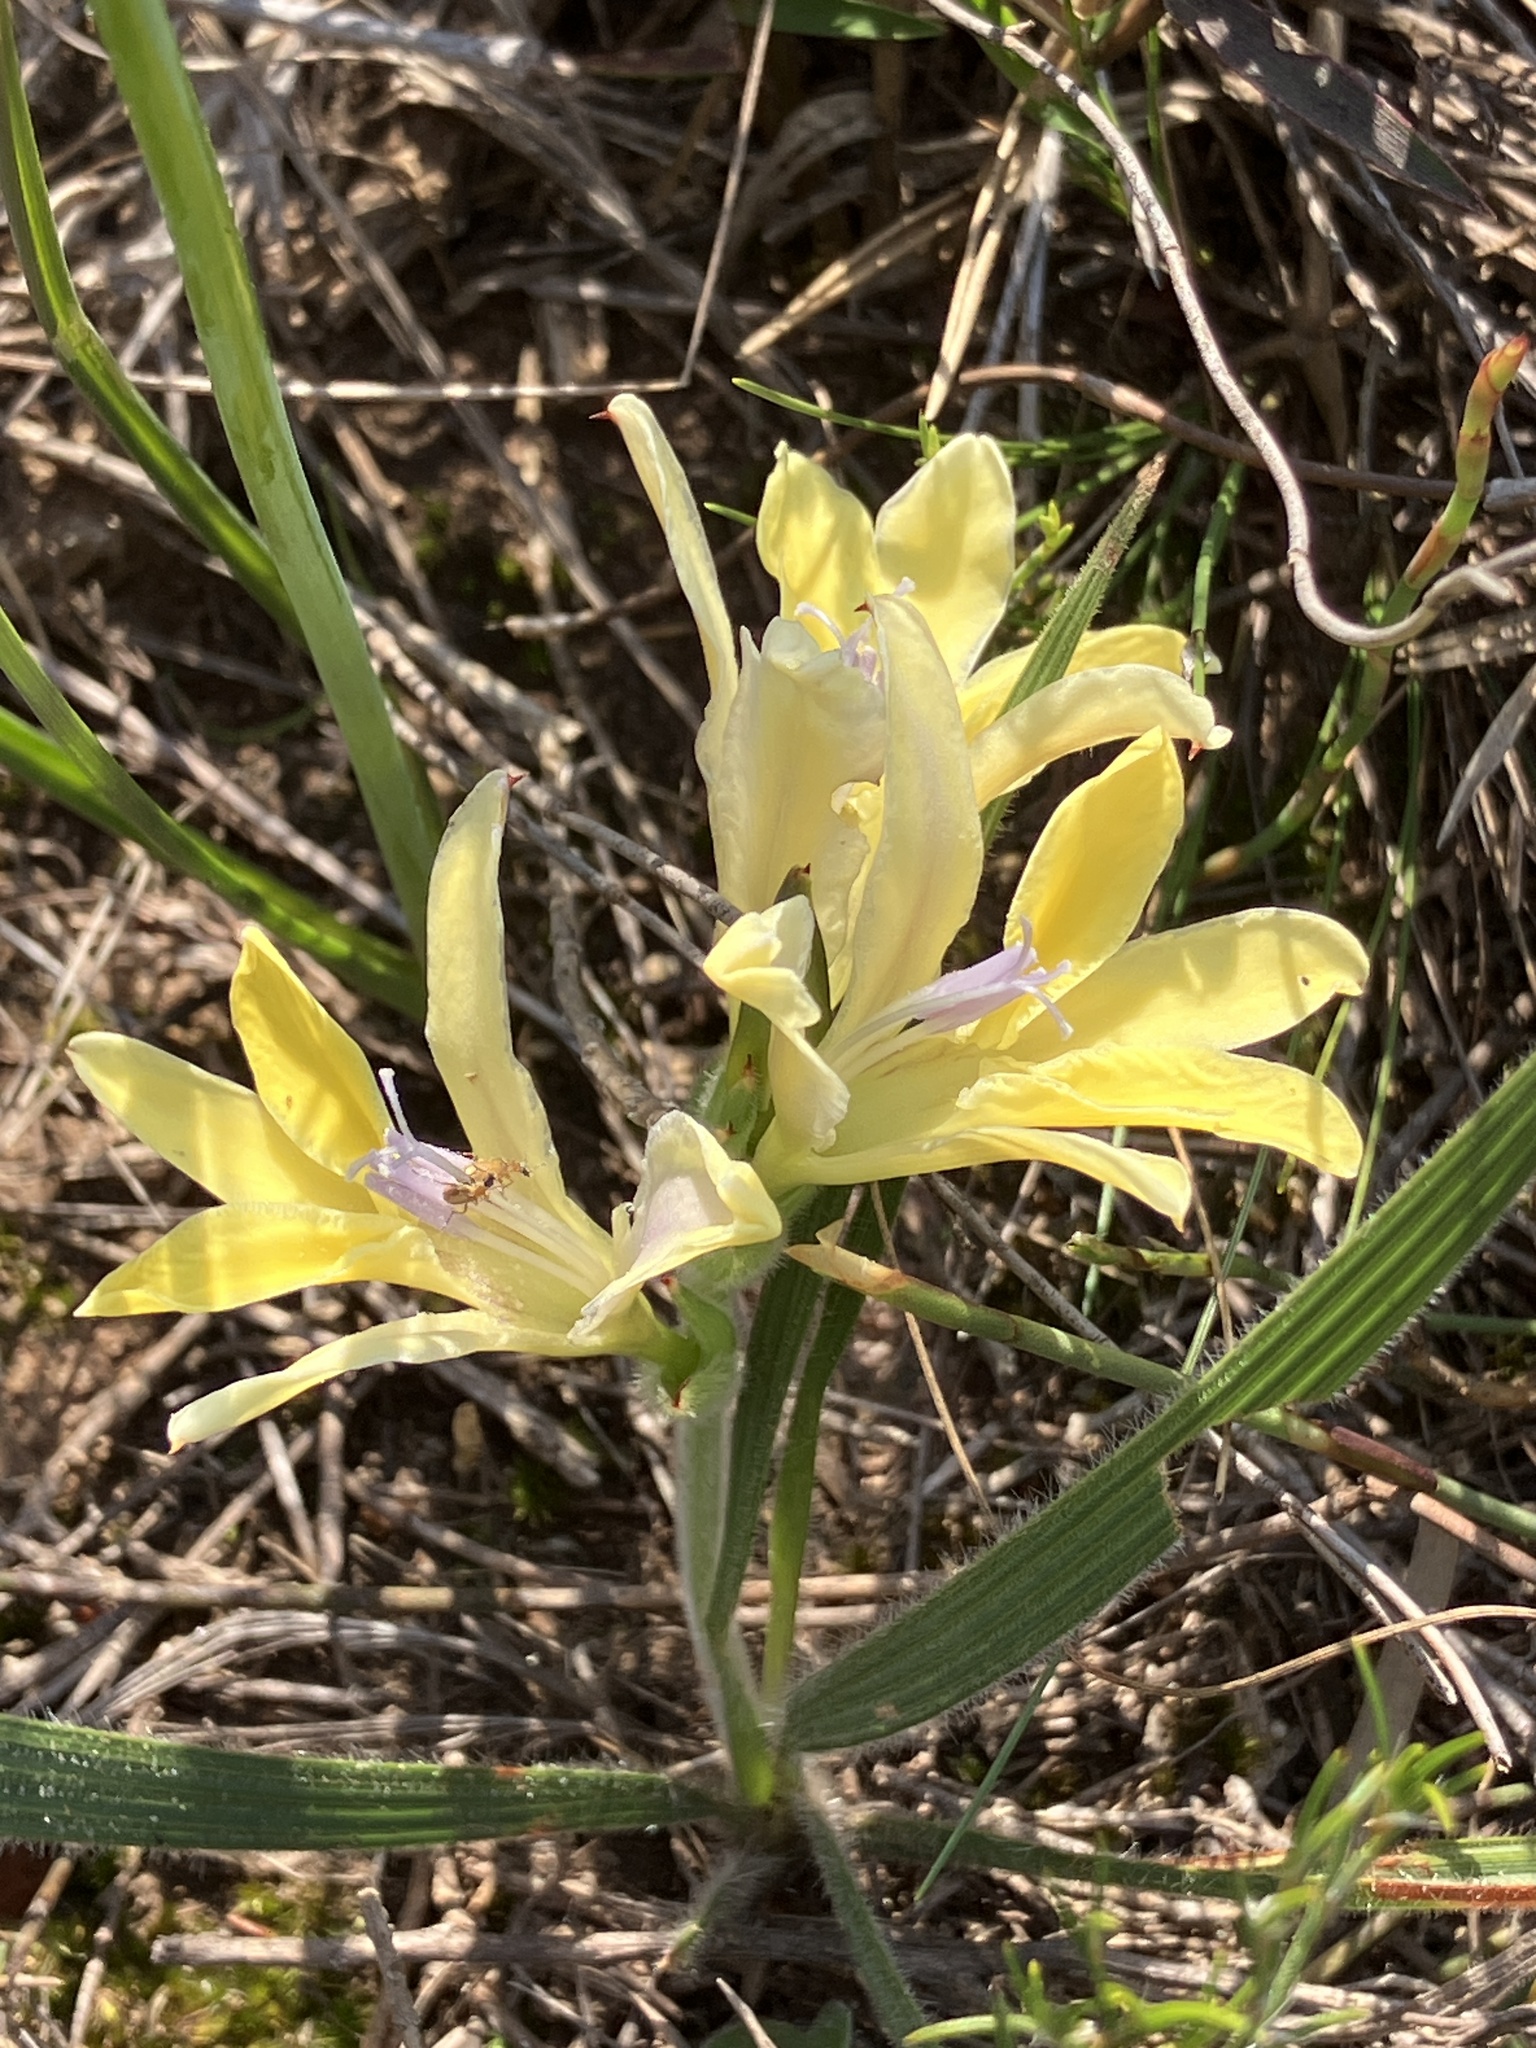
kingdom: Plantae
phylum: Tracheophyta
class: Liliopsida
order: Asparagales
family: Iridaceae
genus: Babiana
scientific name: Babiana patula
